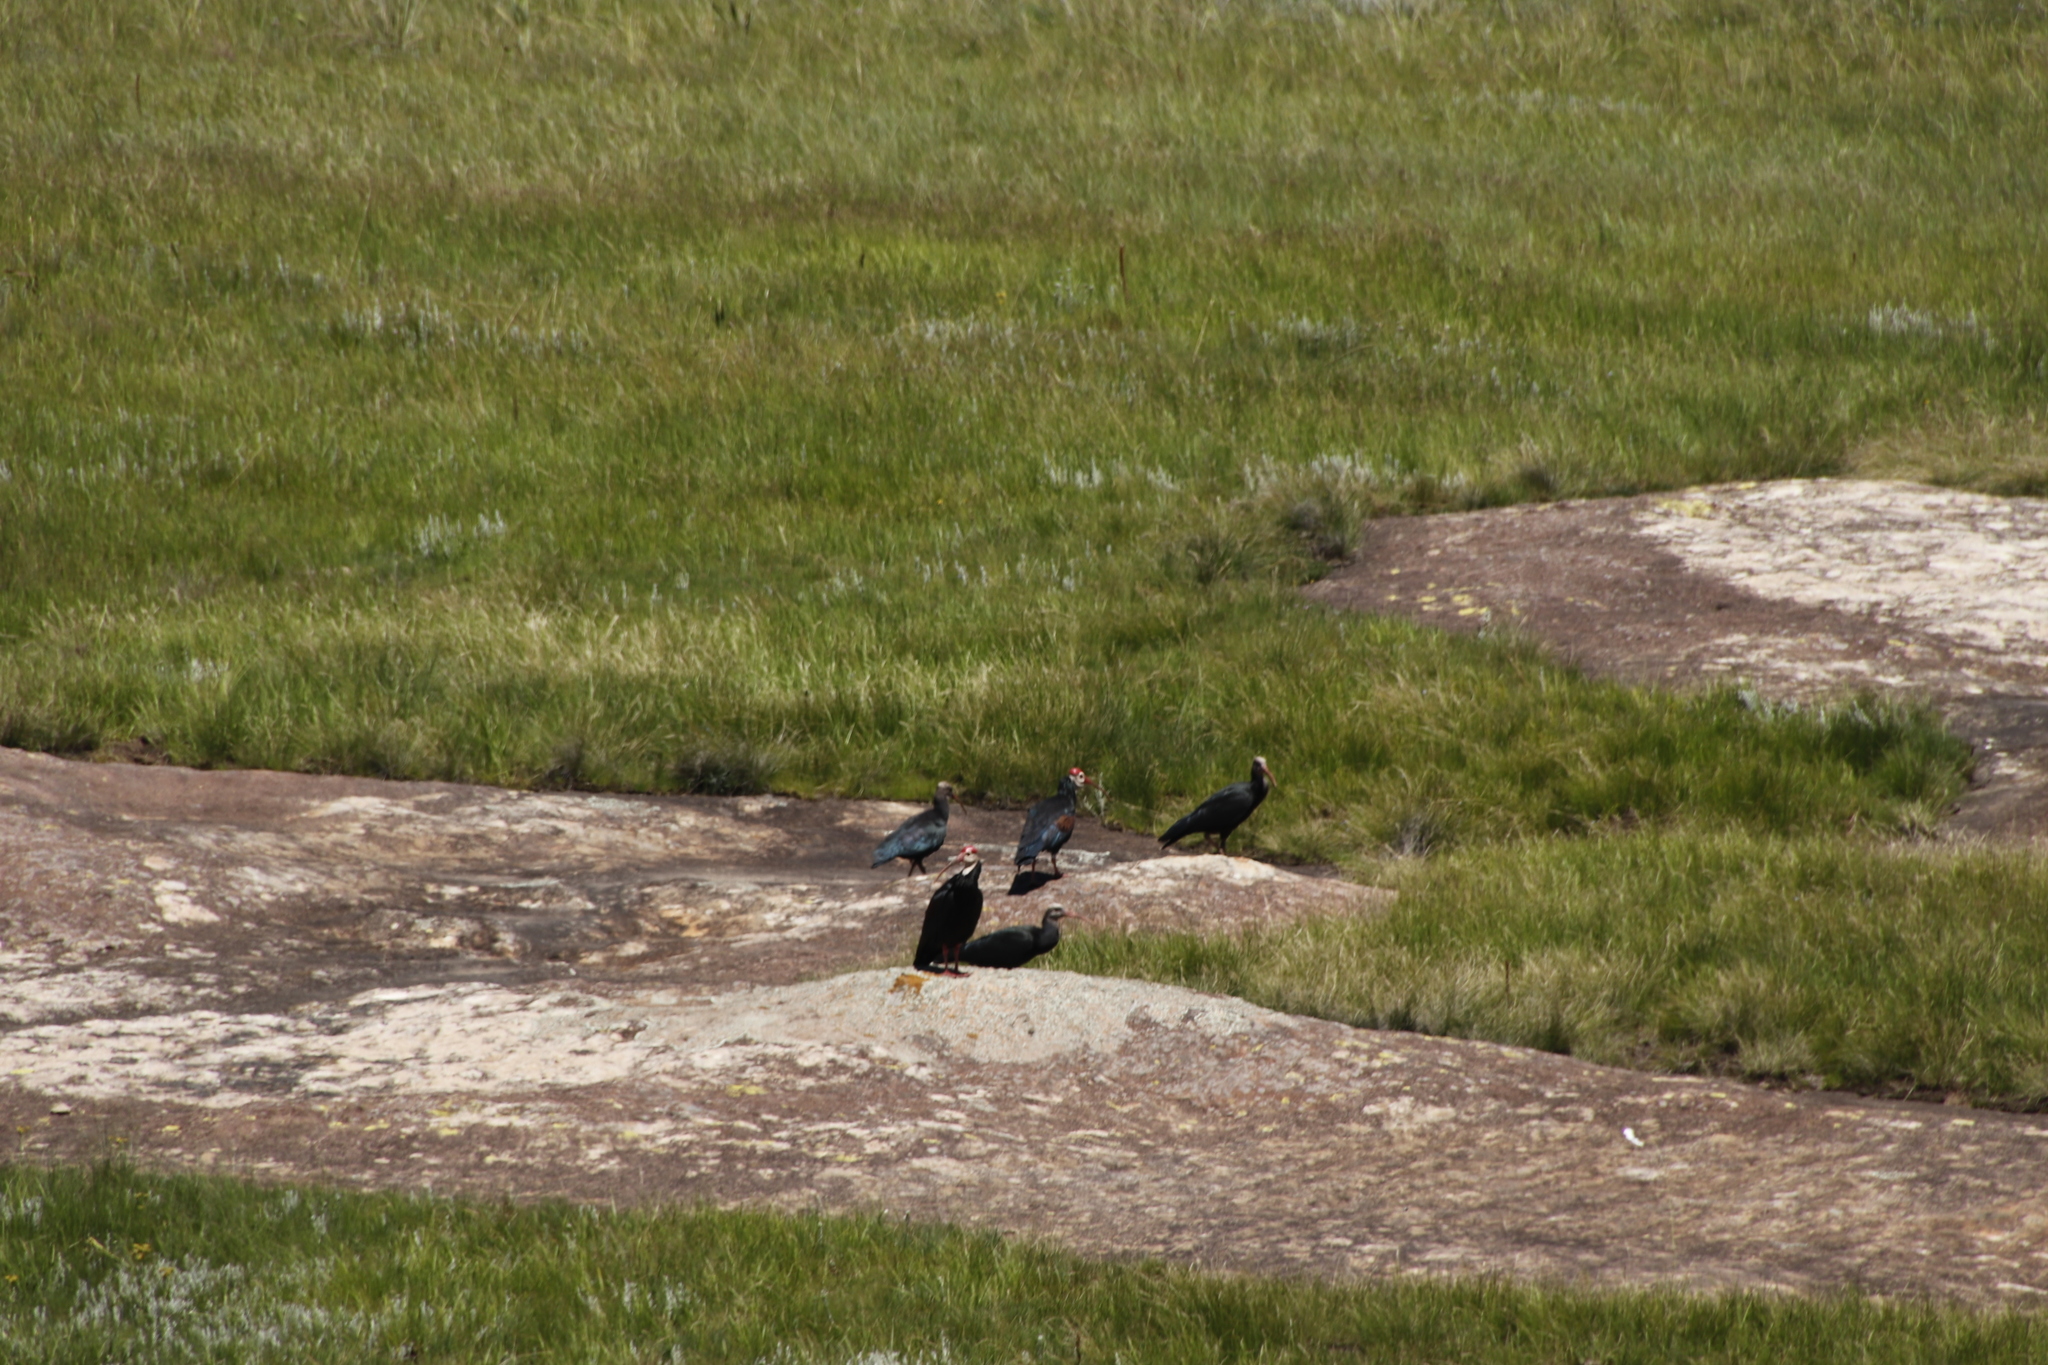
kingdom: Animalia
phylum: Chordata
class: Aves
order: Pelecaniformes
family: Threskiornithidae
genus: Geronticus
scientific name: Geronticus calvus
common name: Southern bald ibis
